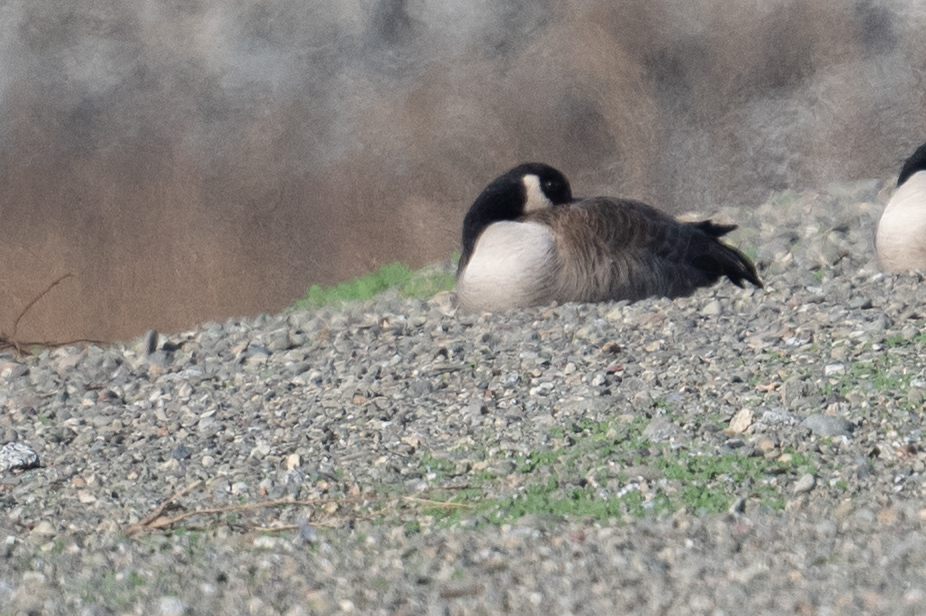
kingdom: Animalia
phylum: Chordata
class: Aves
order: Anseriformes
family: Anatidae
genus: Branta
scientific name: Branta canadensis
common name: Canada goose
